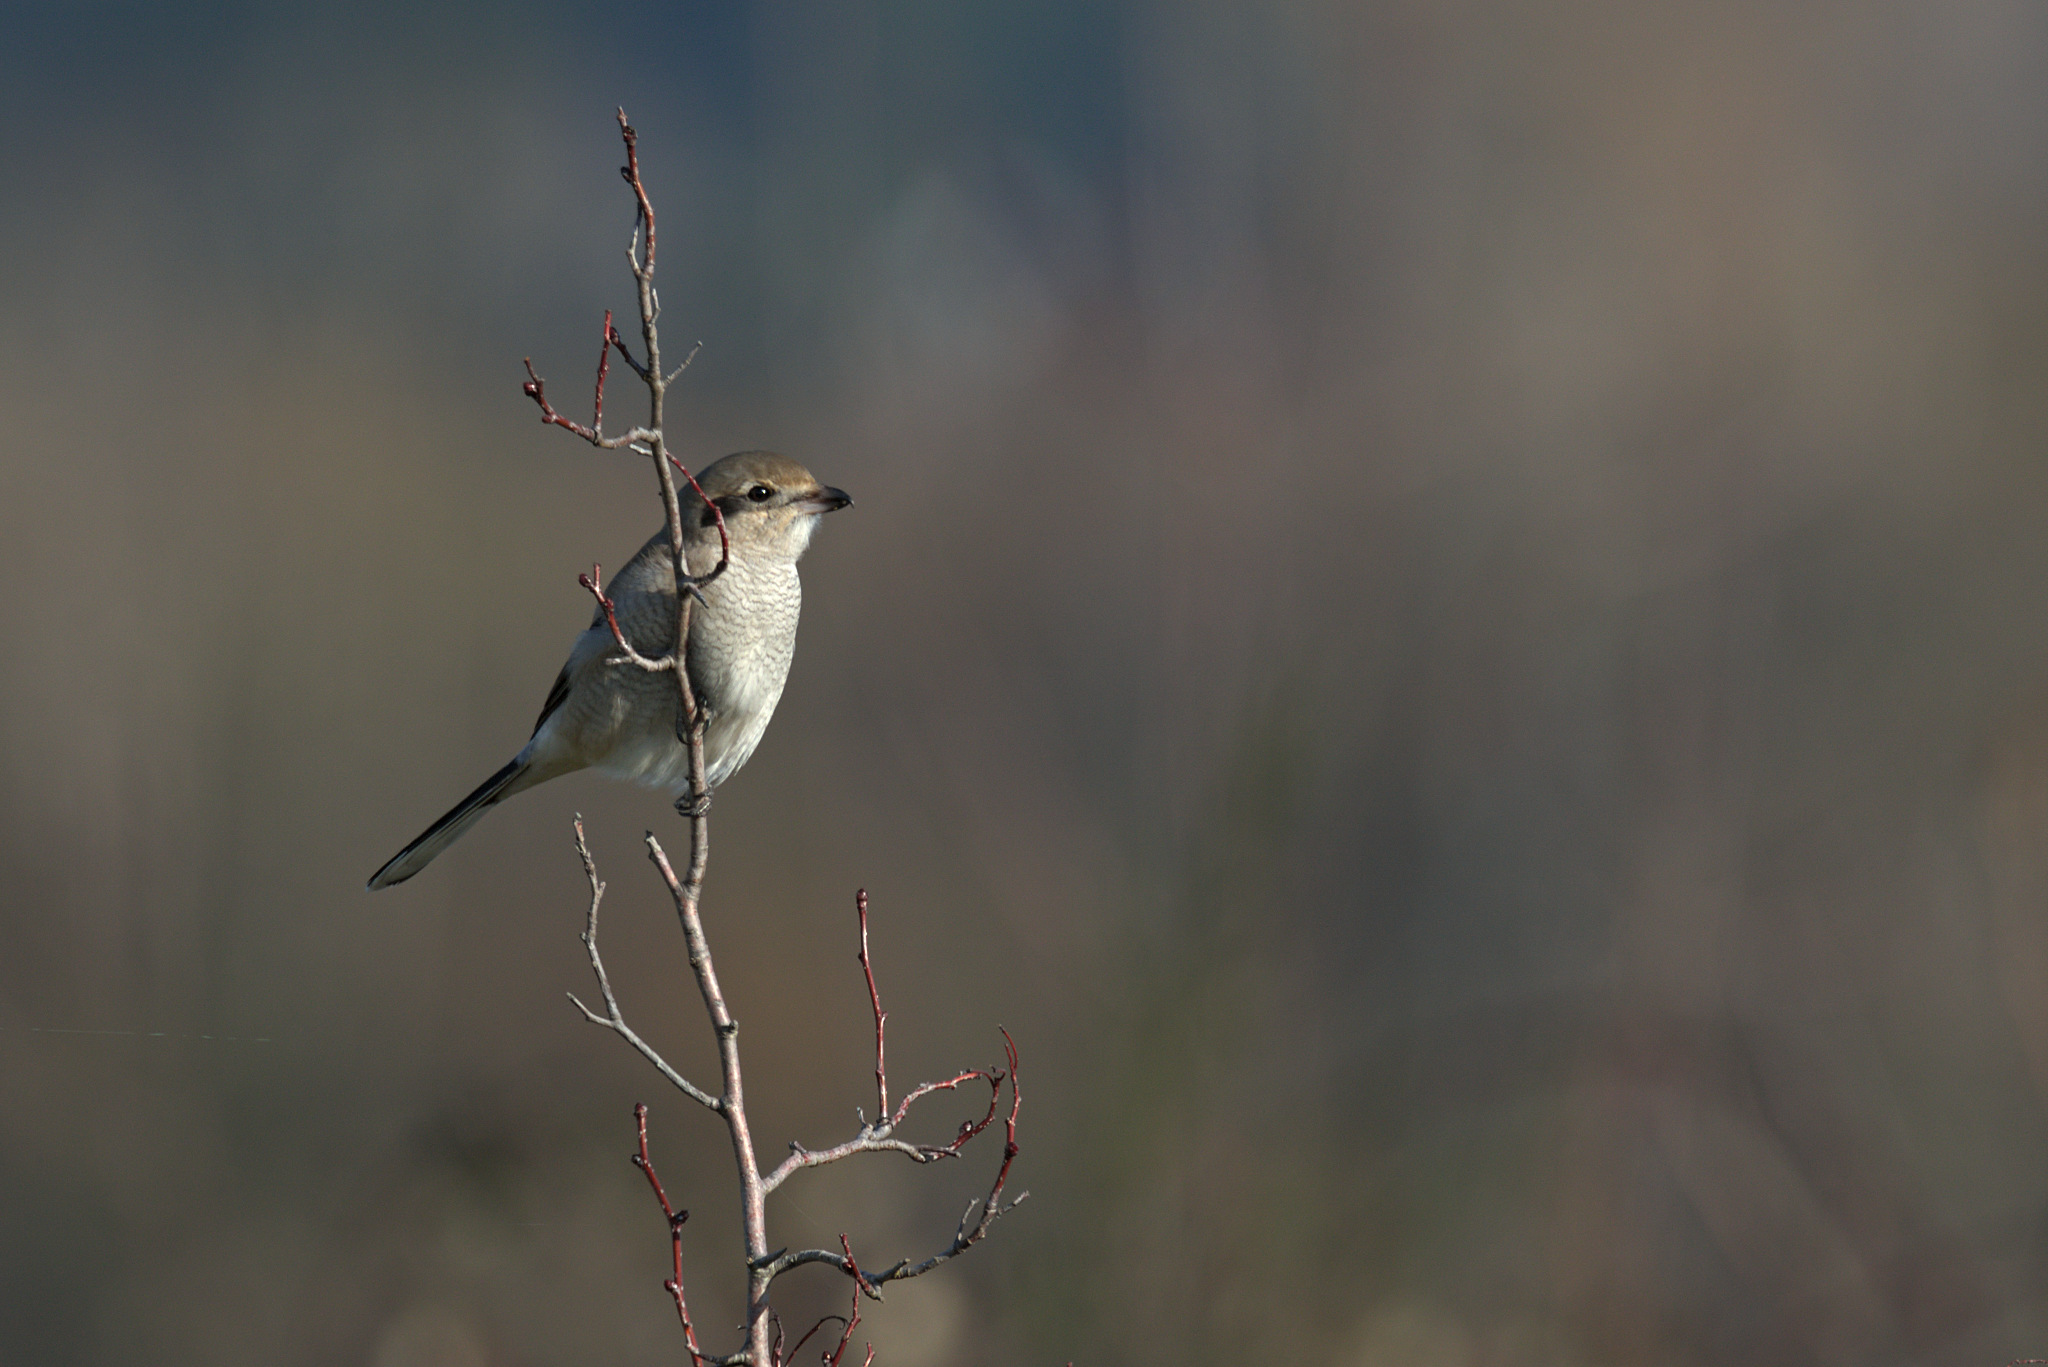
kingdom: Animalia
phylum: Chordata
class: Aves
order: Passeriformes
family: Laniidae
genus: Lanius
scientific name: Lanius borealis
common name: Northern shrike
